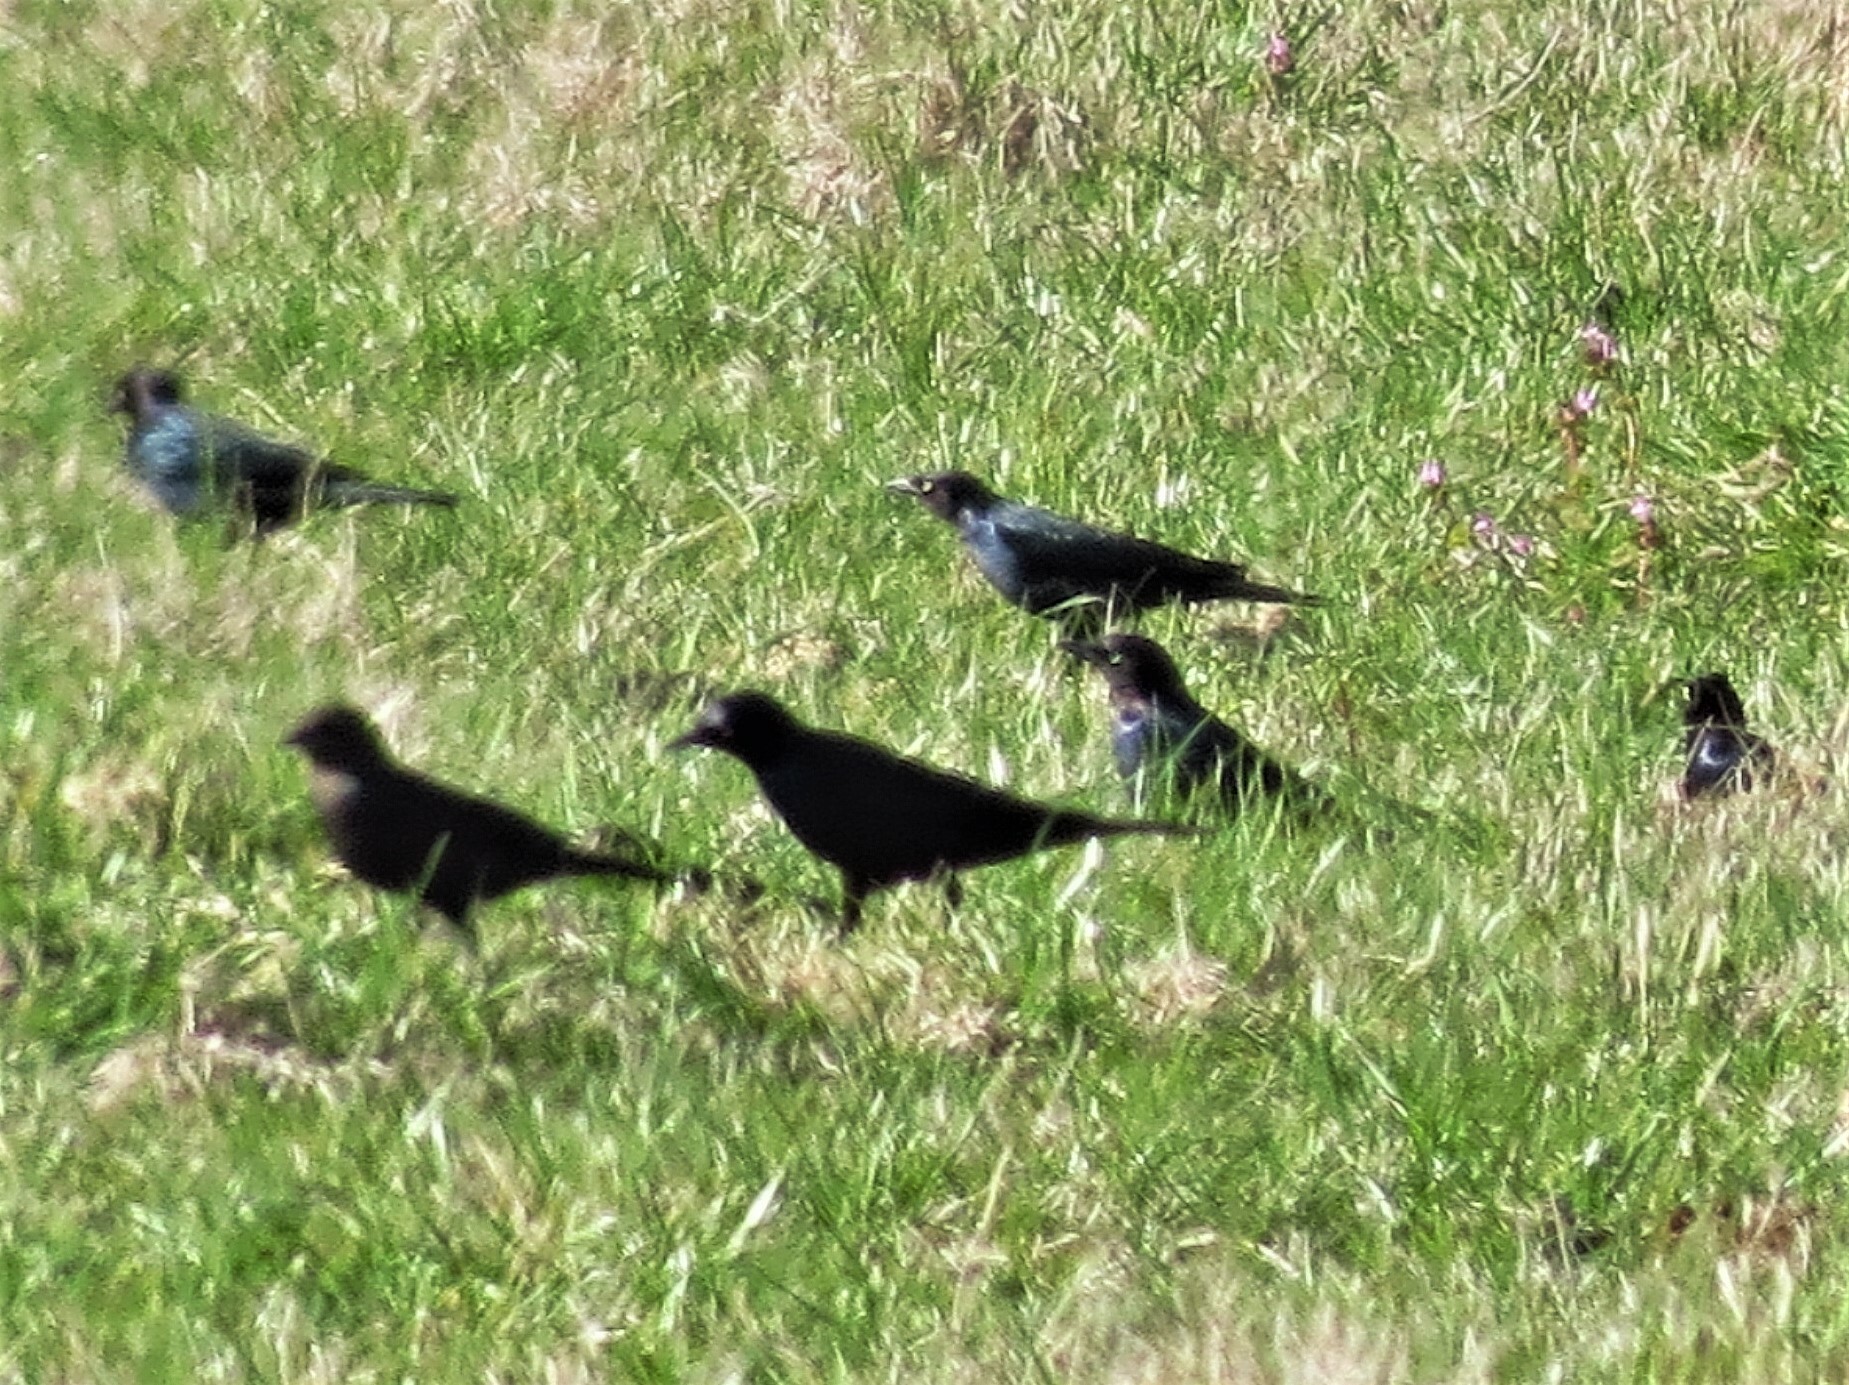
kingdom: Animalia
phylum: Chordata
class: Aves
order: Passeriformes
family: Icteridae
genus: Euphagus
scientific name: Euphagus cyanocephalus
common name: Brewer's blackbird
